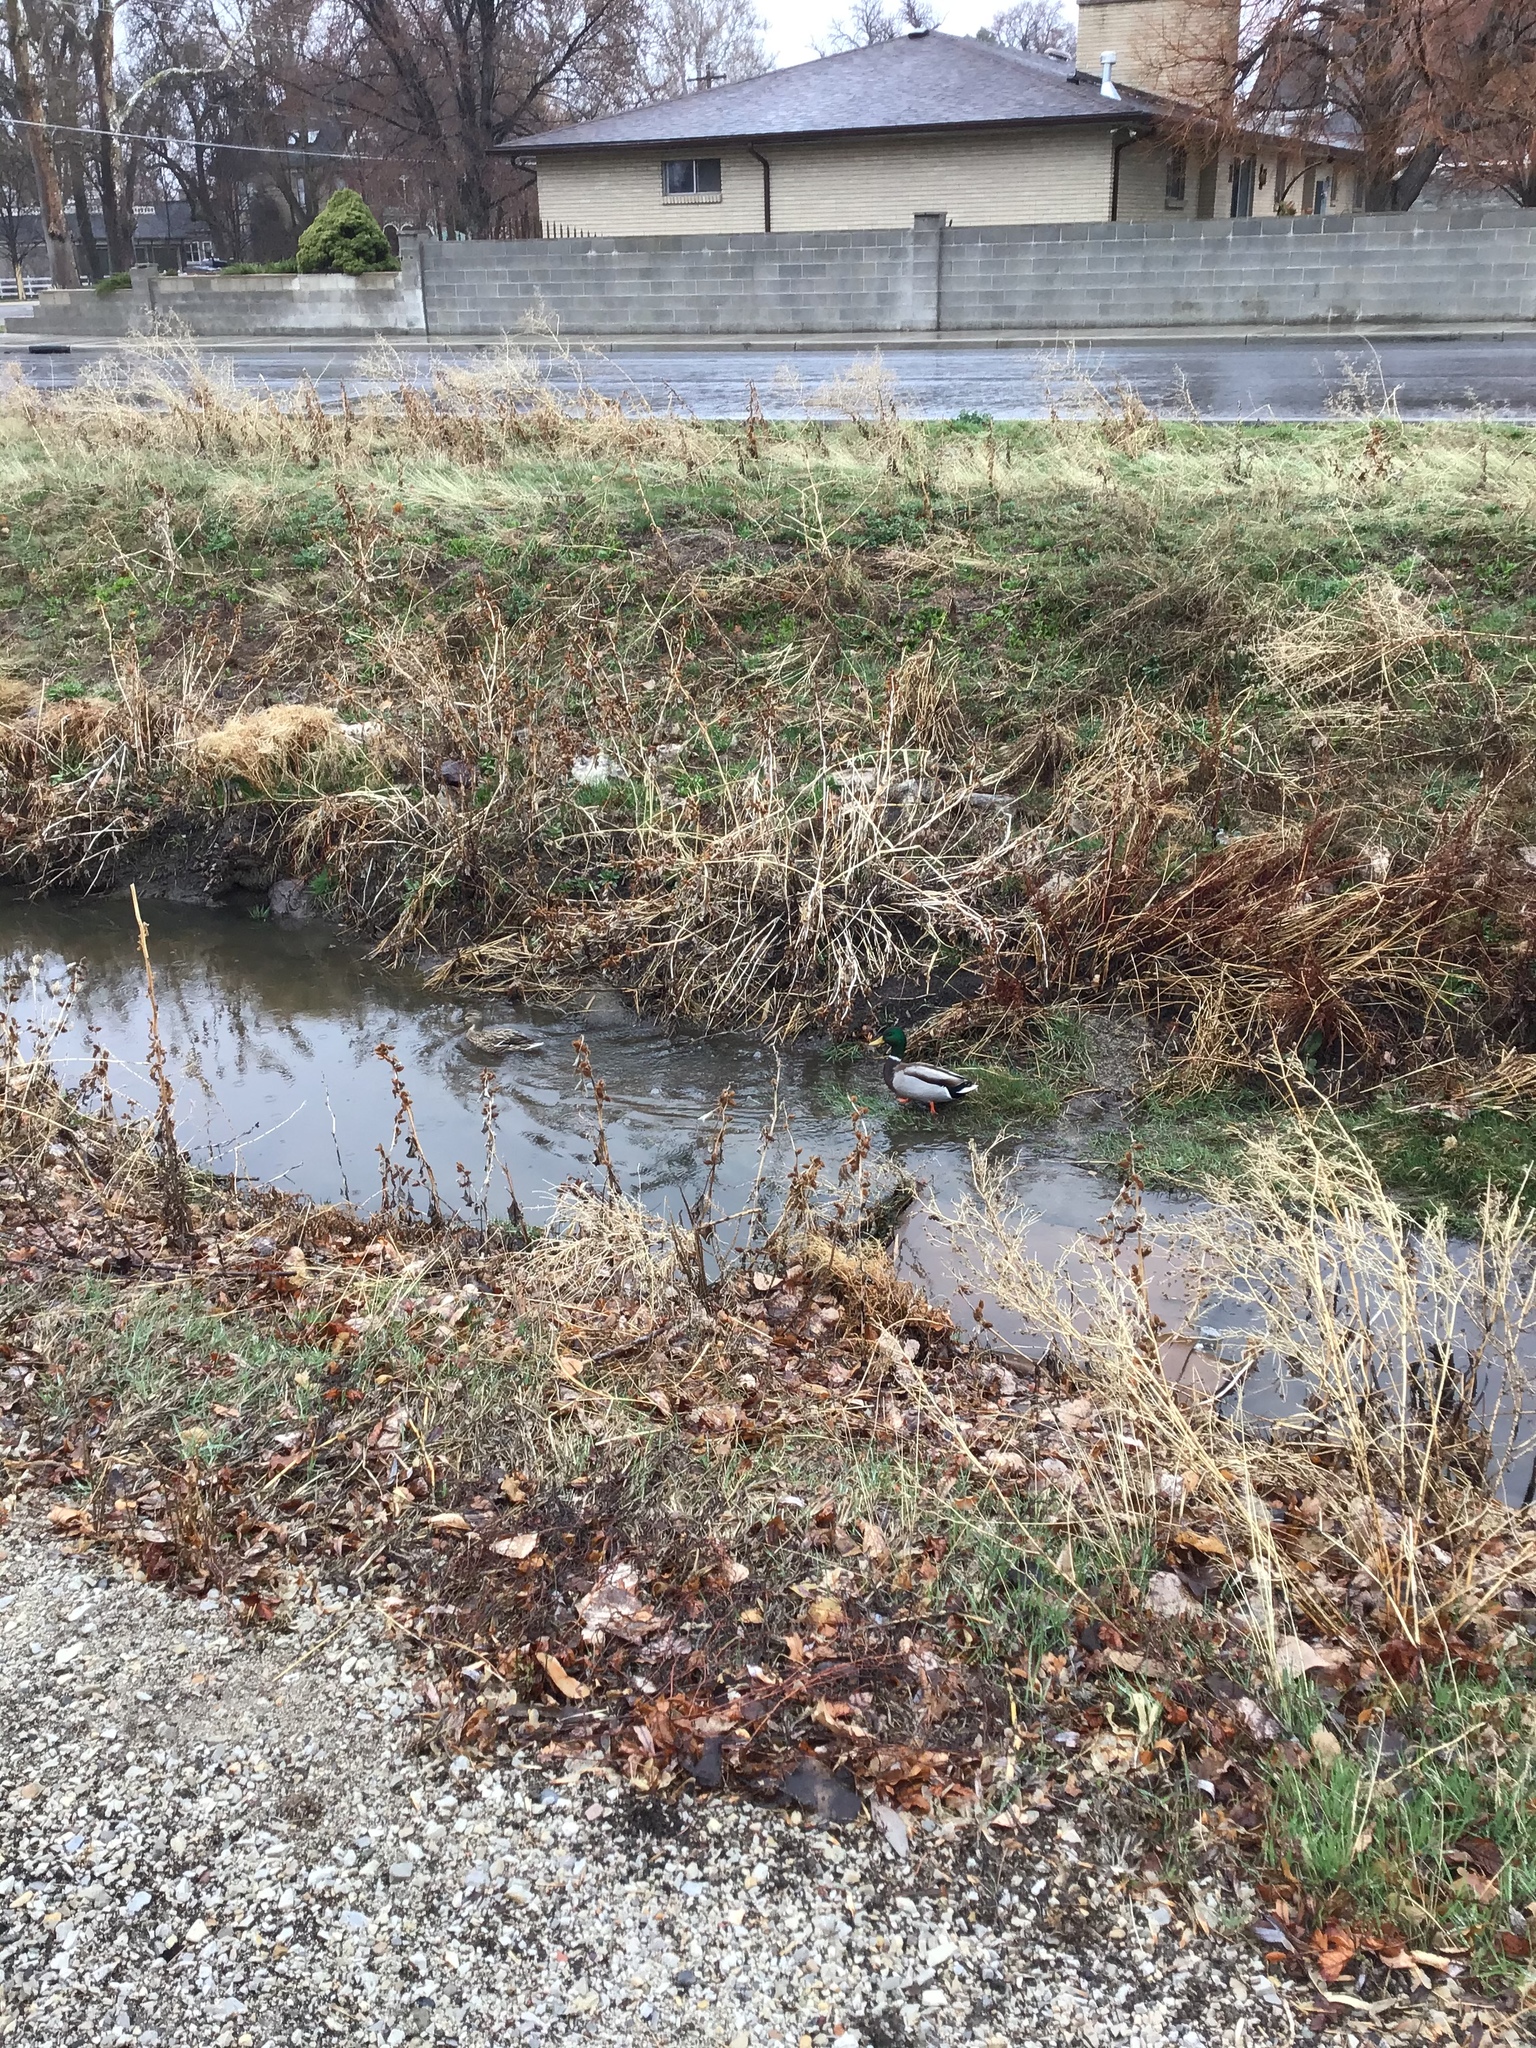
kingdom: Animalia
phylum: Chordata
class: Aves
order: Anseriformes
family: Anatidae
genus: Anas
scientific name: Anas platyrhynchos
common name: Mallard
